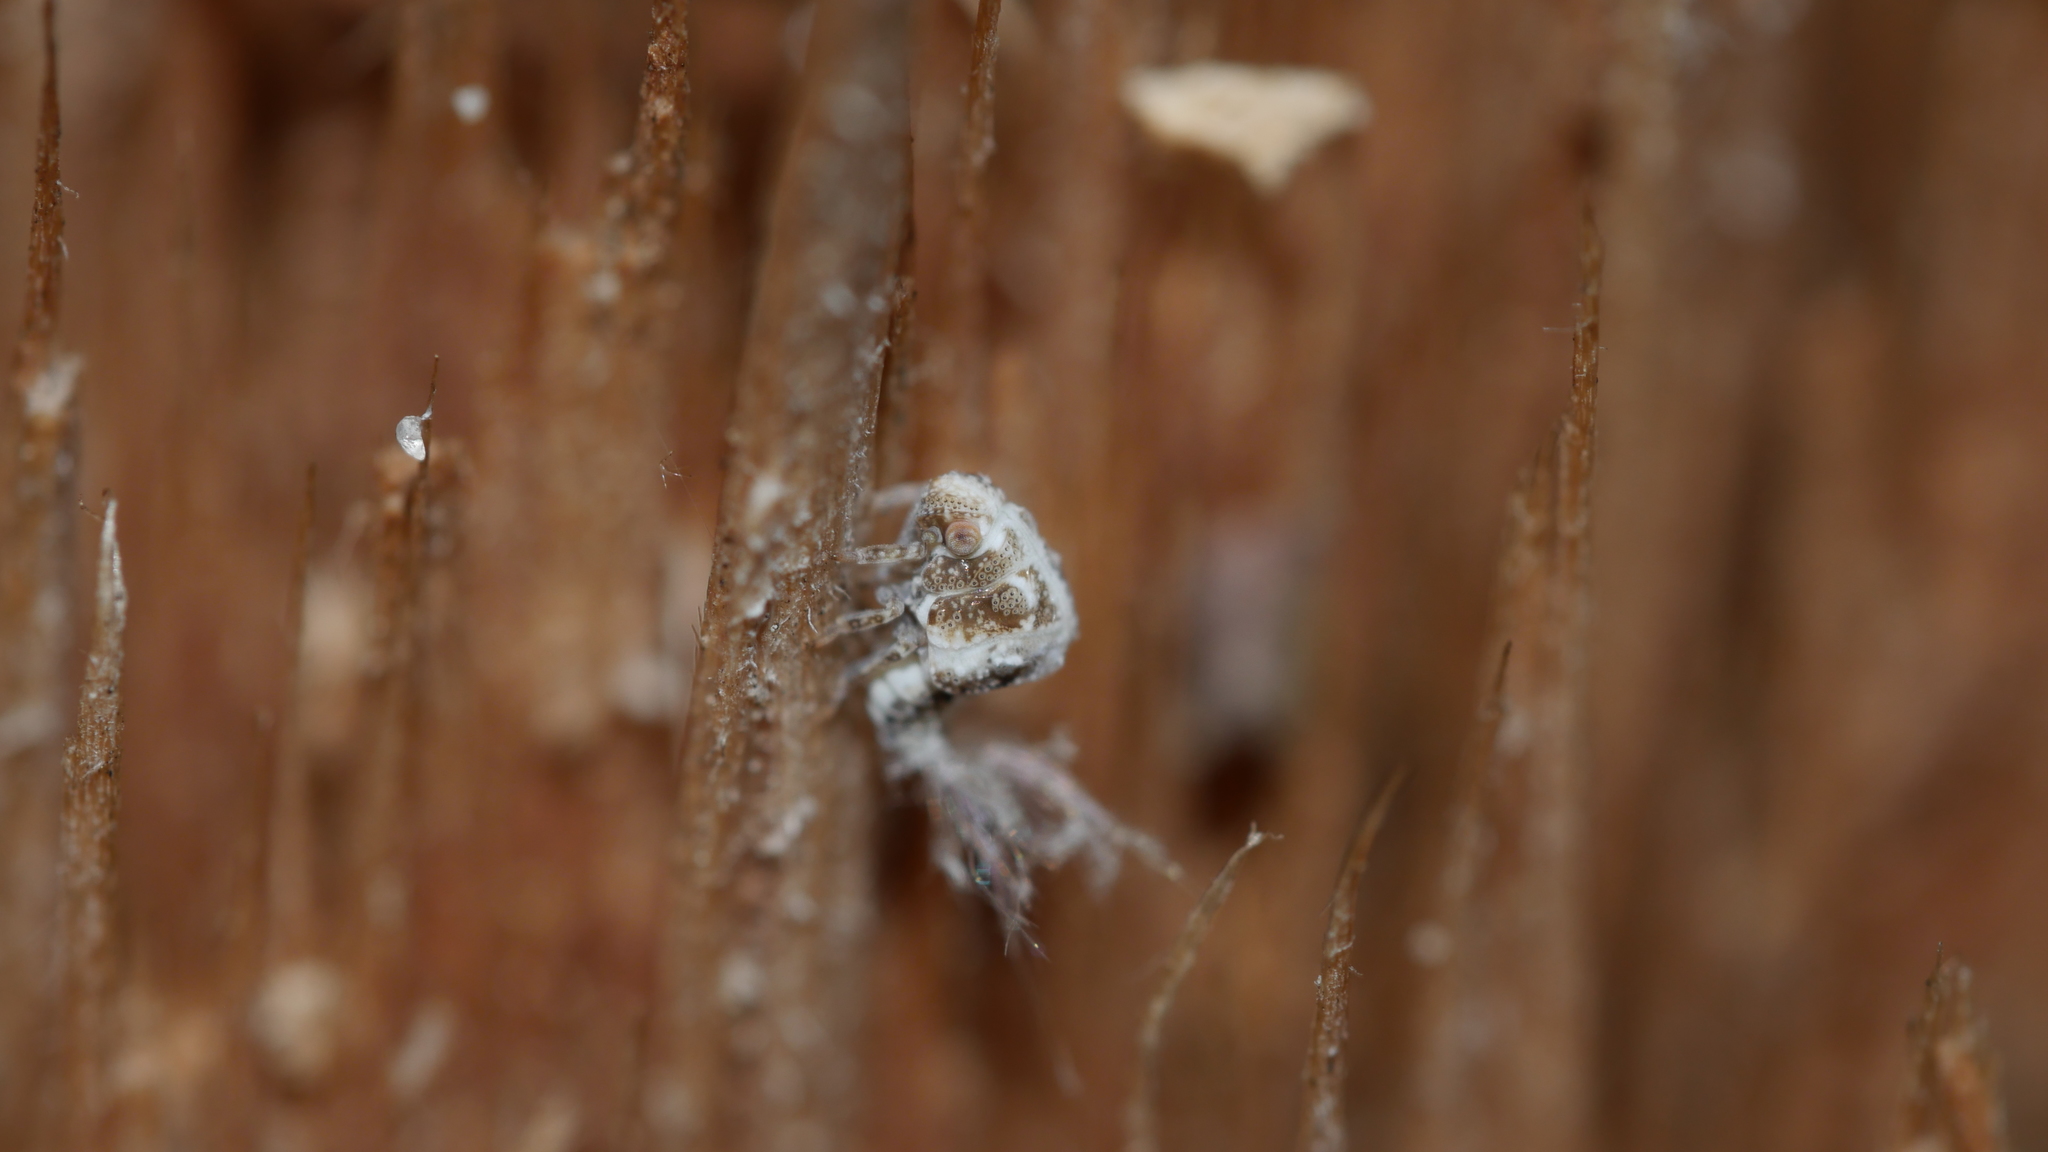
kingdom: Animalia
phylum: Arthropoda
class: Insecta
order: Hemiptera
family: Acanaloniidae
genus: Acanalonia
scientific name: Acanalonia
